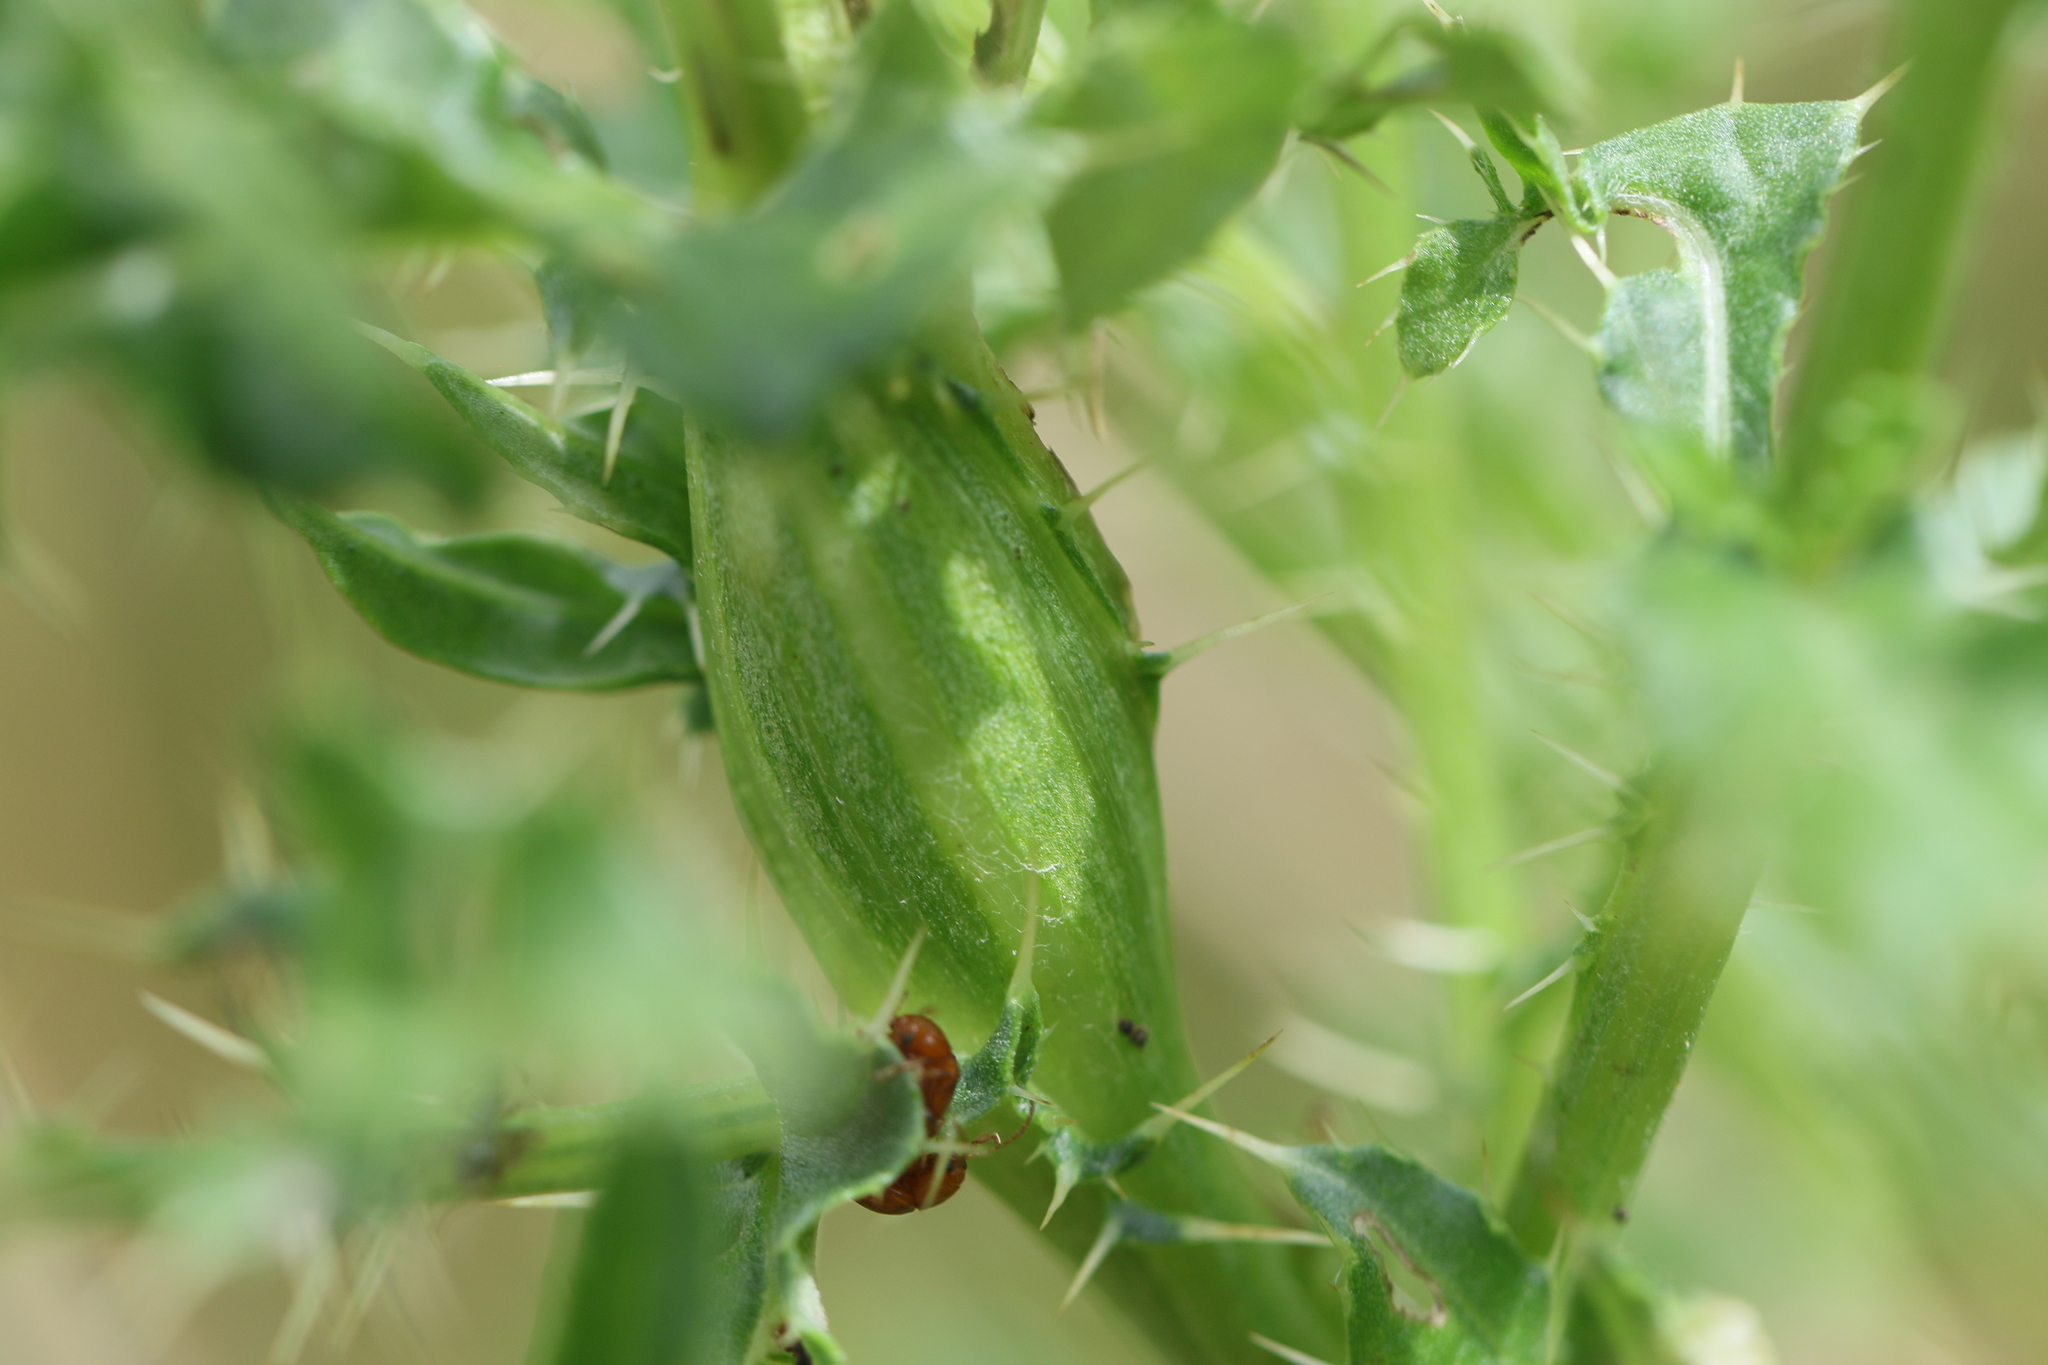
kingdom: Animalia
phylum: Arthropoda
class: Insecta
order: Diptera
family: Tephritidae
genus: Urophora
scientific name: Urophora cardui
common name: Fruit fly
